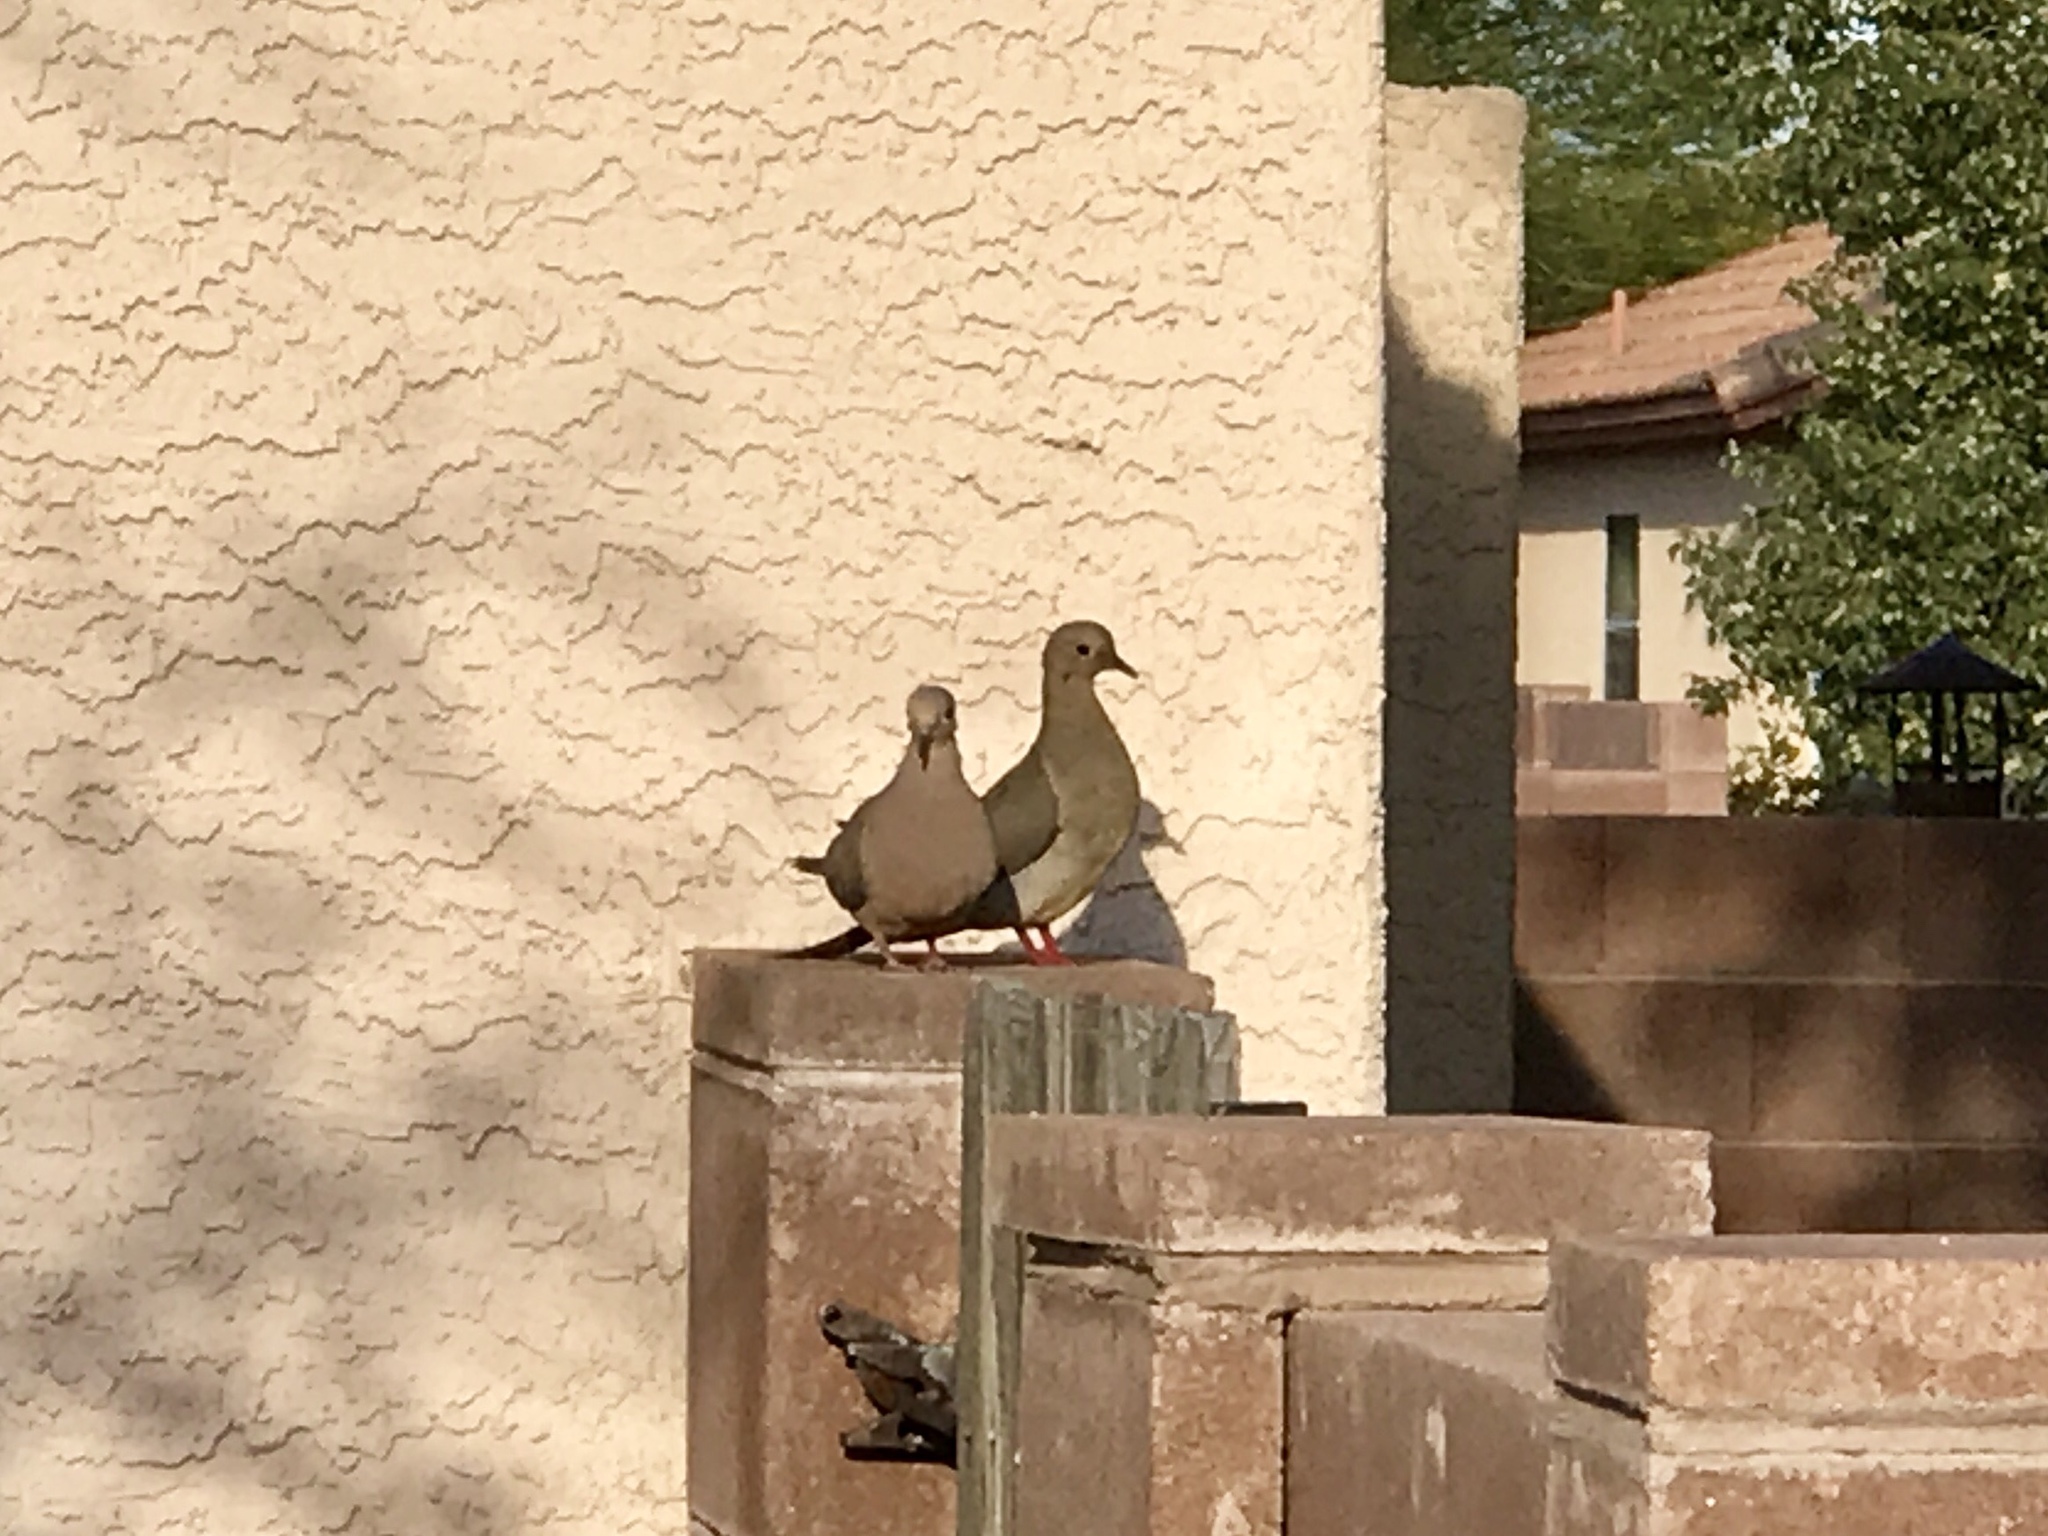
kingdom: Animalia
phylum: Chordata
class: Aves
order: Columbiformes
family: Columbidae
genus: Zenaida
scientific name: Zenaida macroura
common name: Mourning dove
